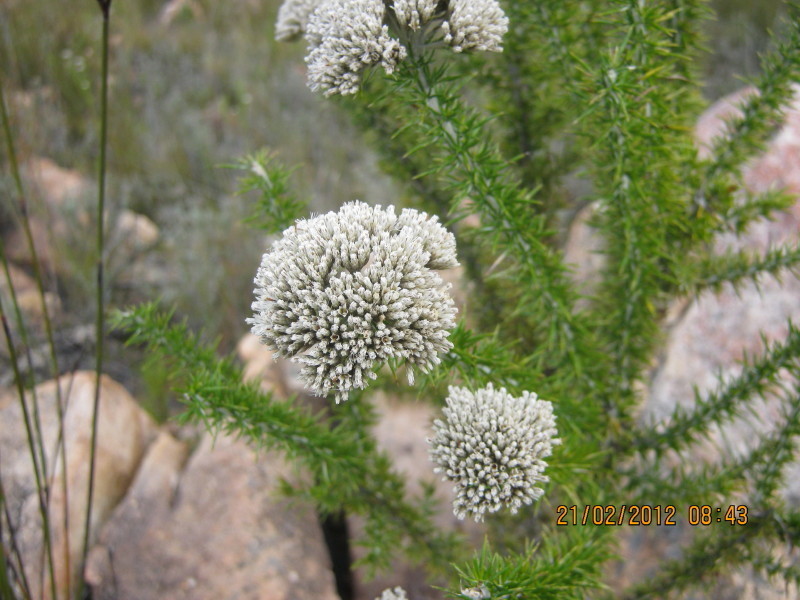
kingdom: Plantae
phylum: Tracheophyta
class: Magnoliopsida
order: Asterales
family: Asteraceae
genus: Metalasia
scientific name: Metalasia acuta
